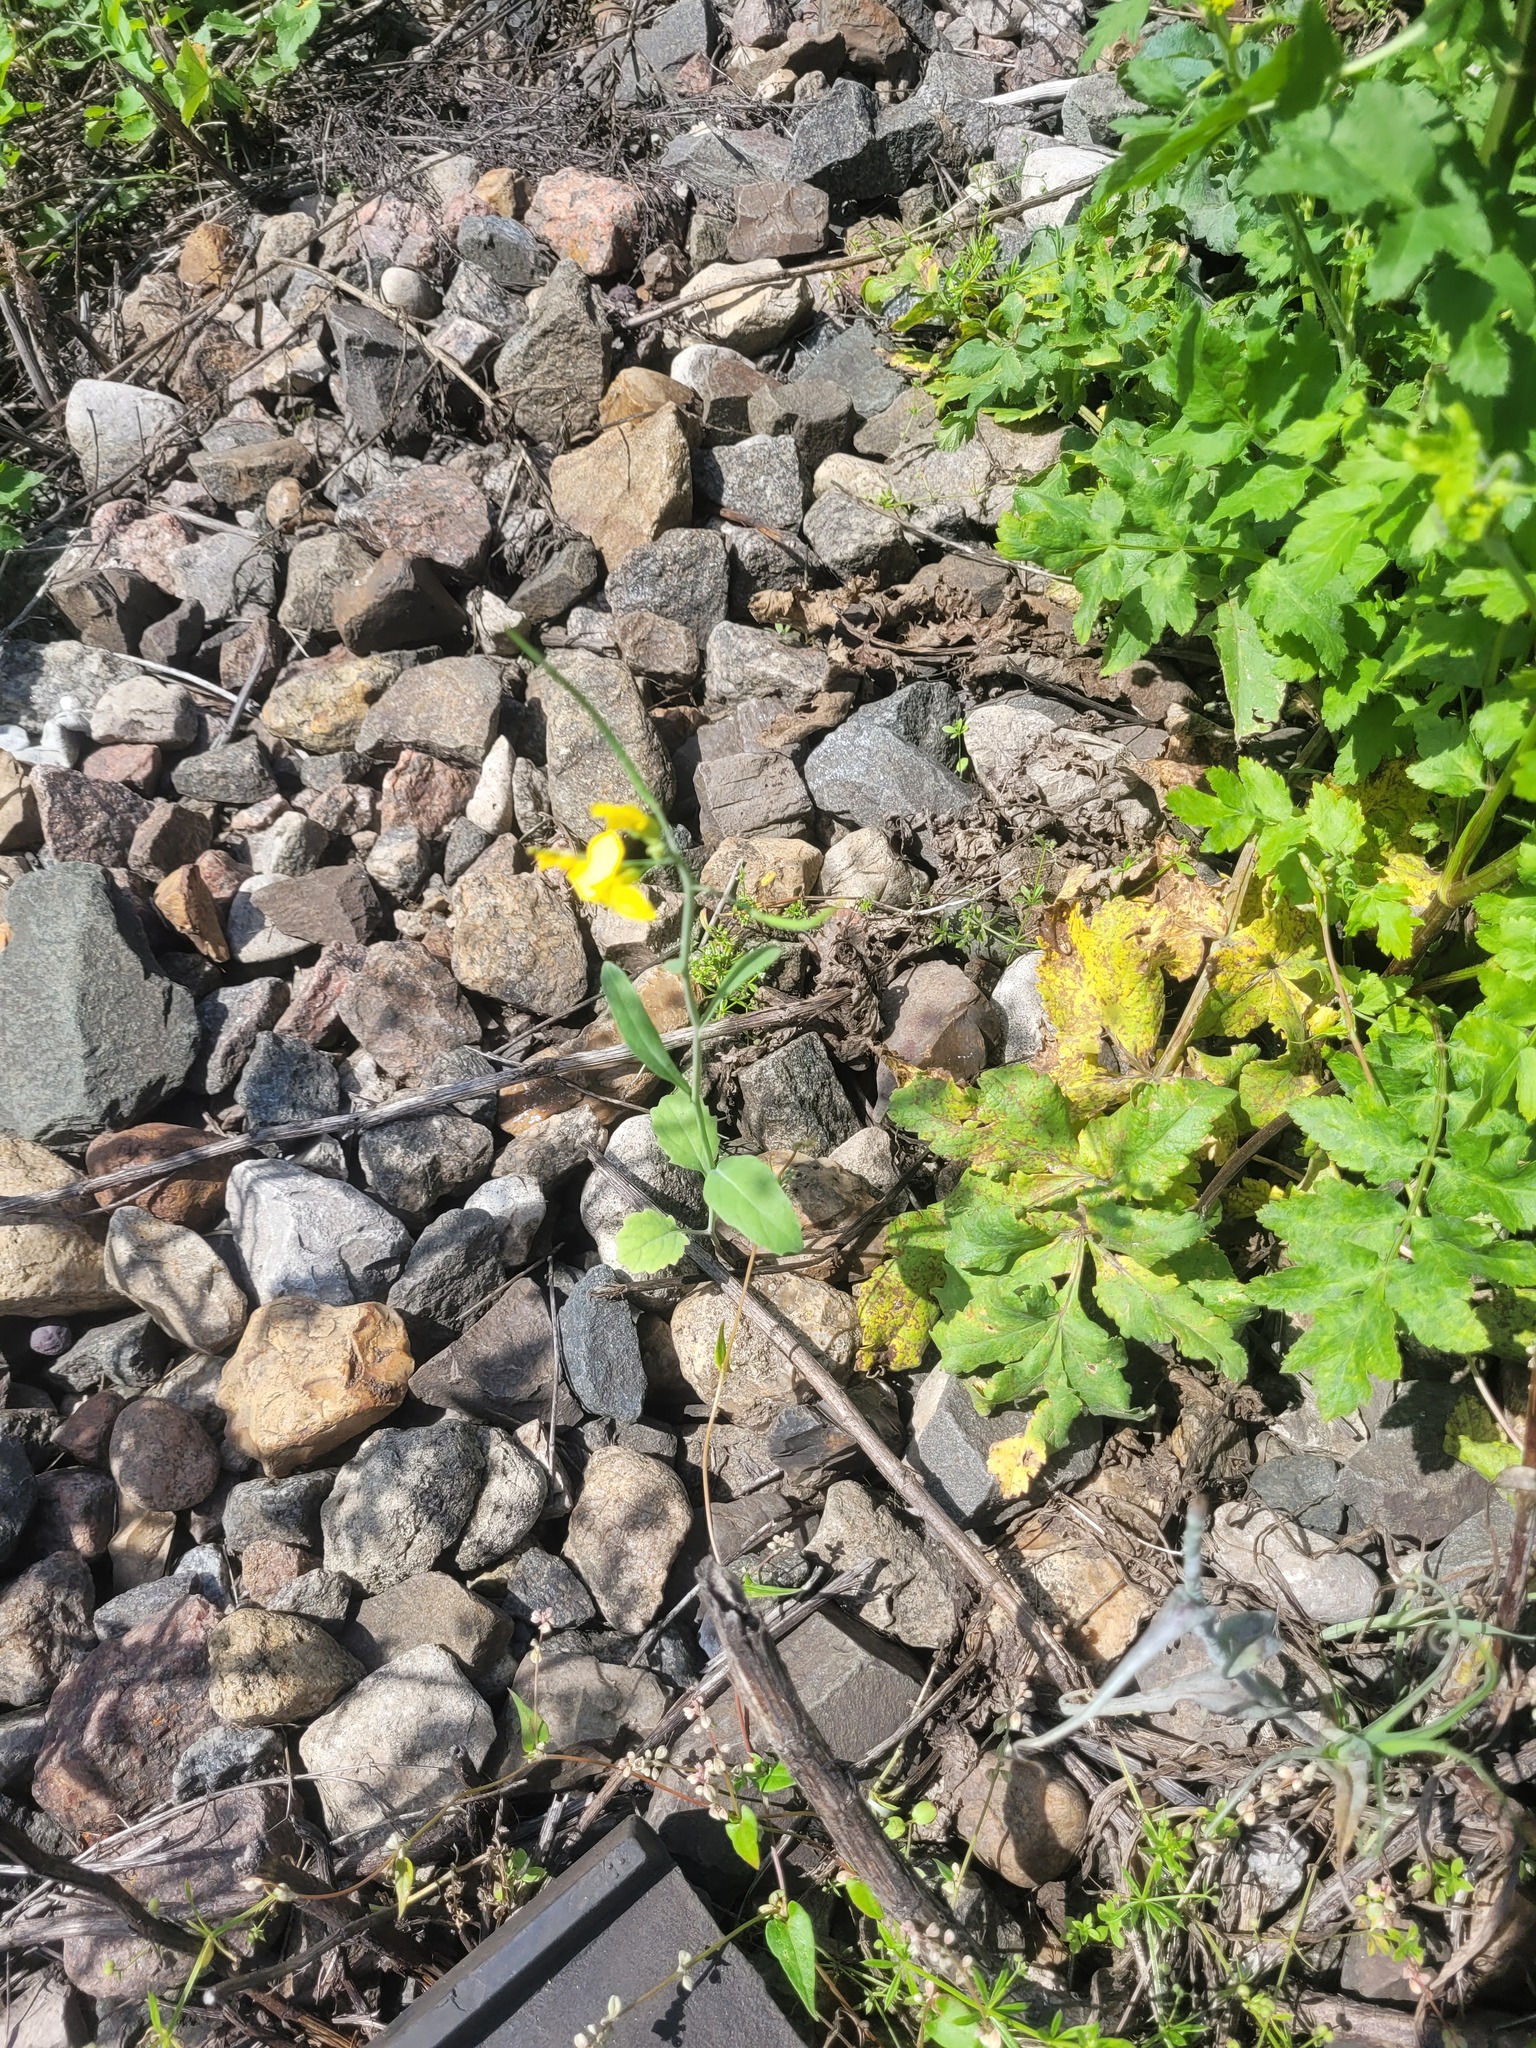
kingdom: Plantae
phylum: Tracheophyta
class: Magnoliopsida
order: Brassicales
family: Brassicaceae
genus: Brassica
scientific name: Brassica napus
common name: Rape
